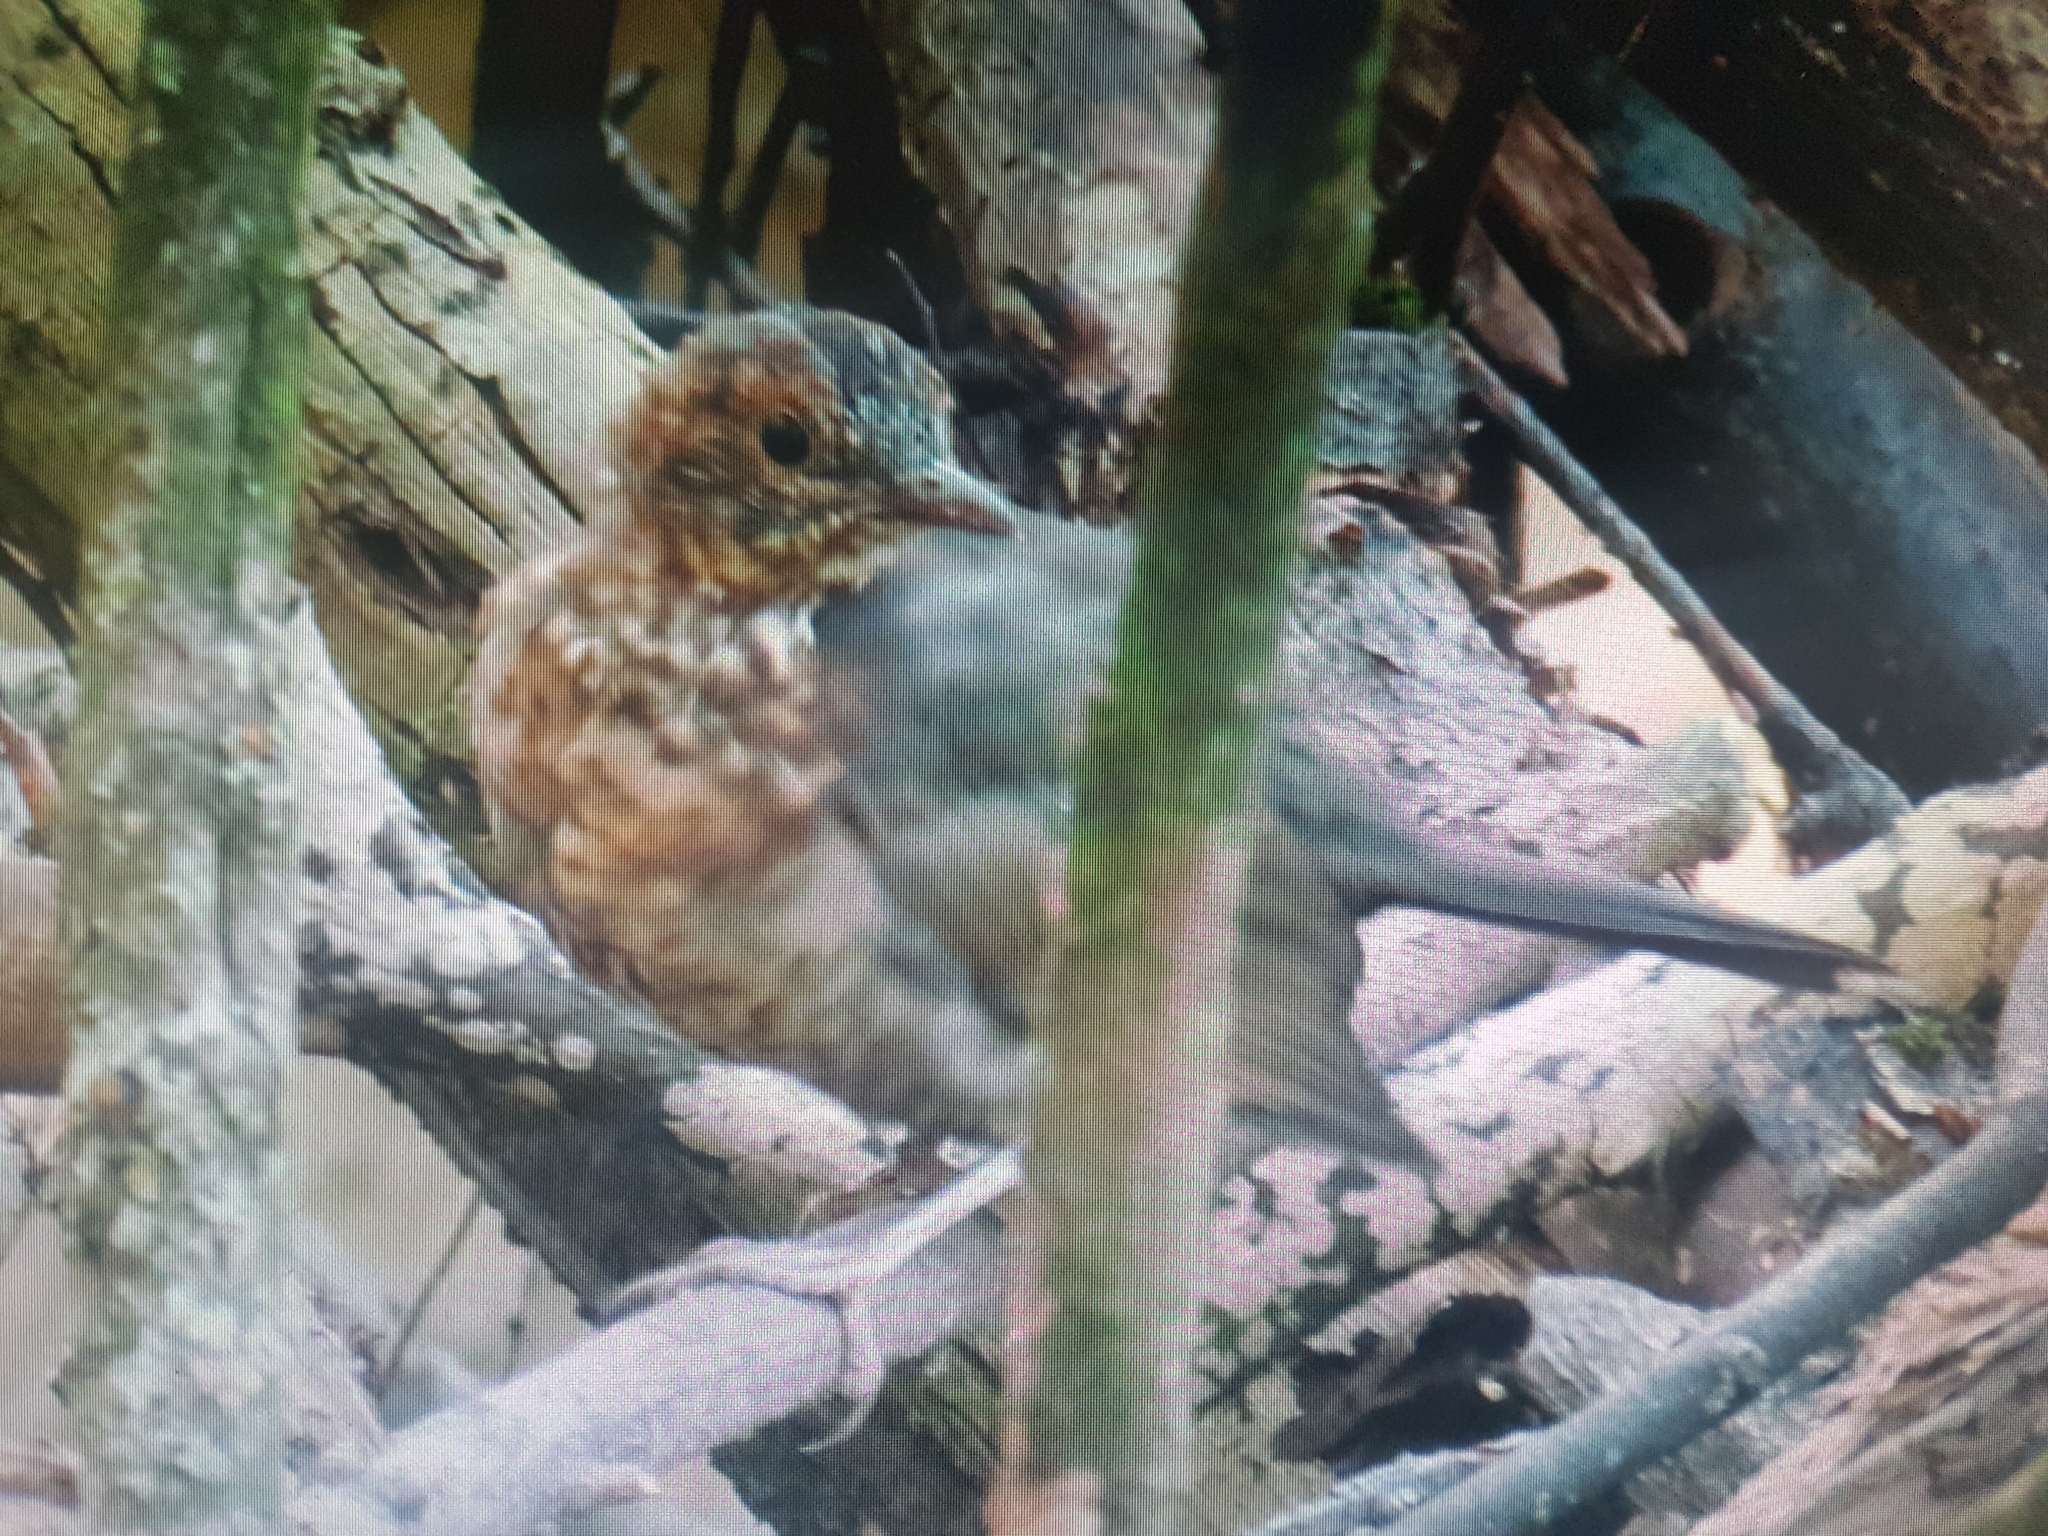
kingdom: Animalia
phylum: Chordata
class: Aves
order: Passeriformes
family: Turdidae
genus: Turdus
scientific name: Turdus merula
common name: Common blackbird
